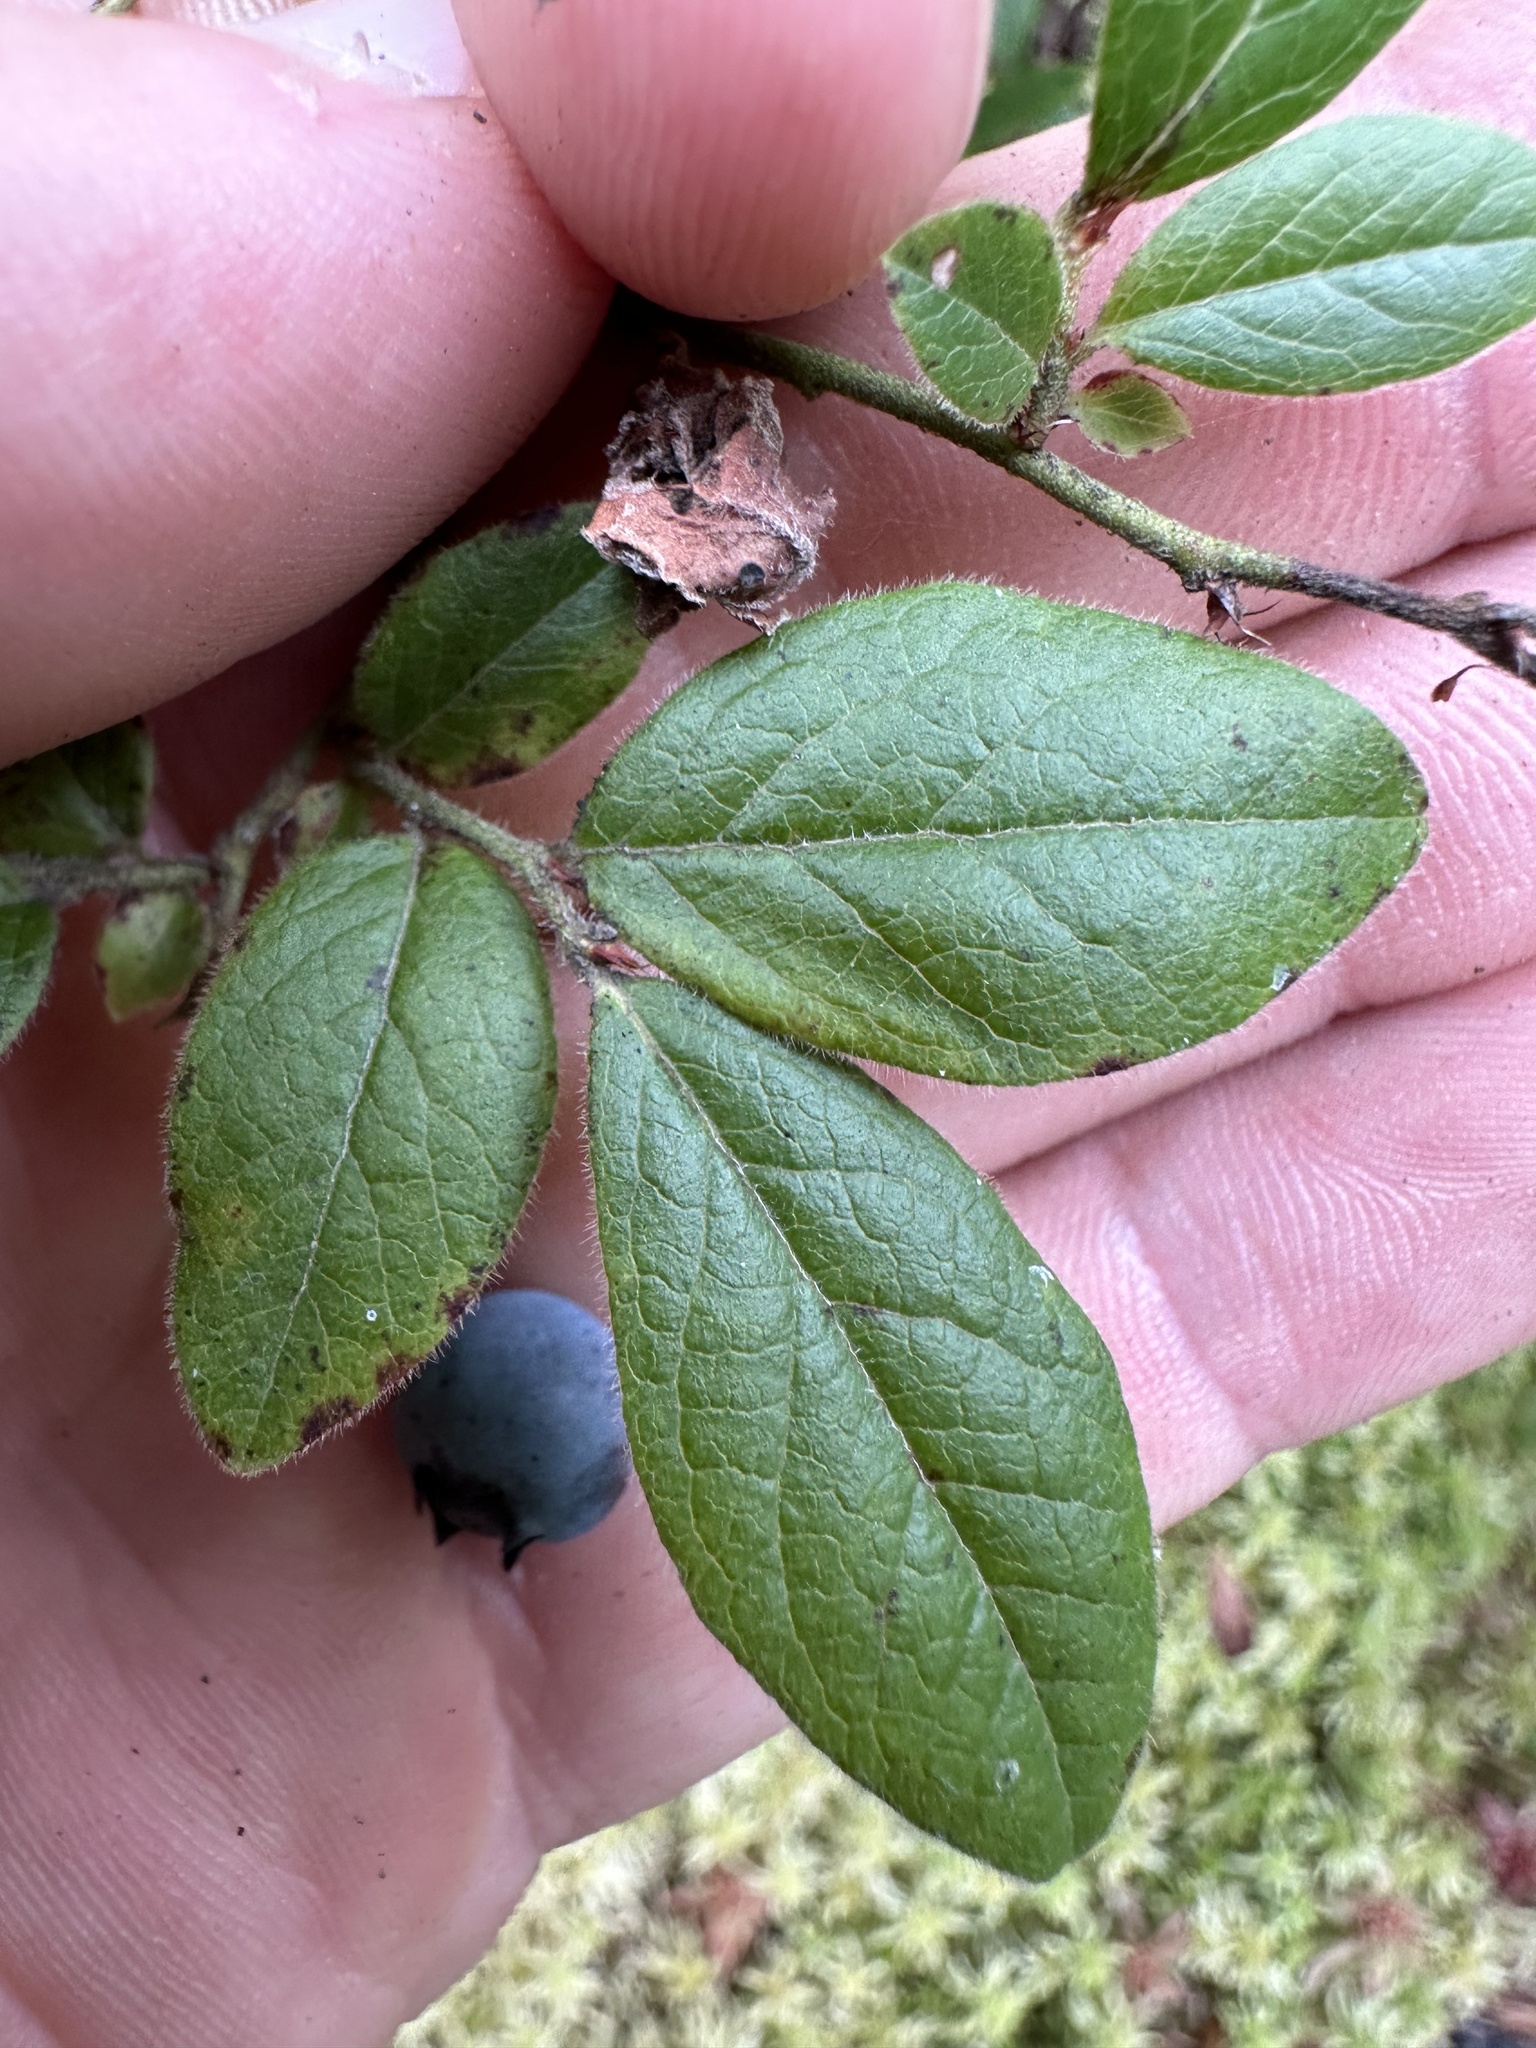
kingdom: Plantae
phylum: Tracheophyta
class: Magnoliopsida
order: Ericales
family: Ericaceae
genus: Vaccinium
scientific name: Vaccinium myrtilloides
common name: Canada blueberry
